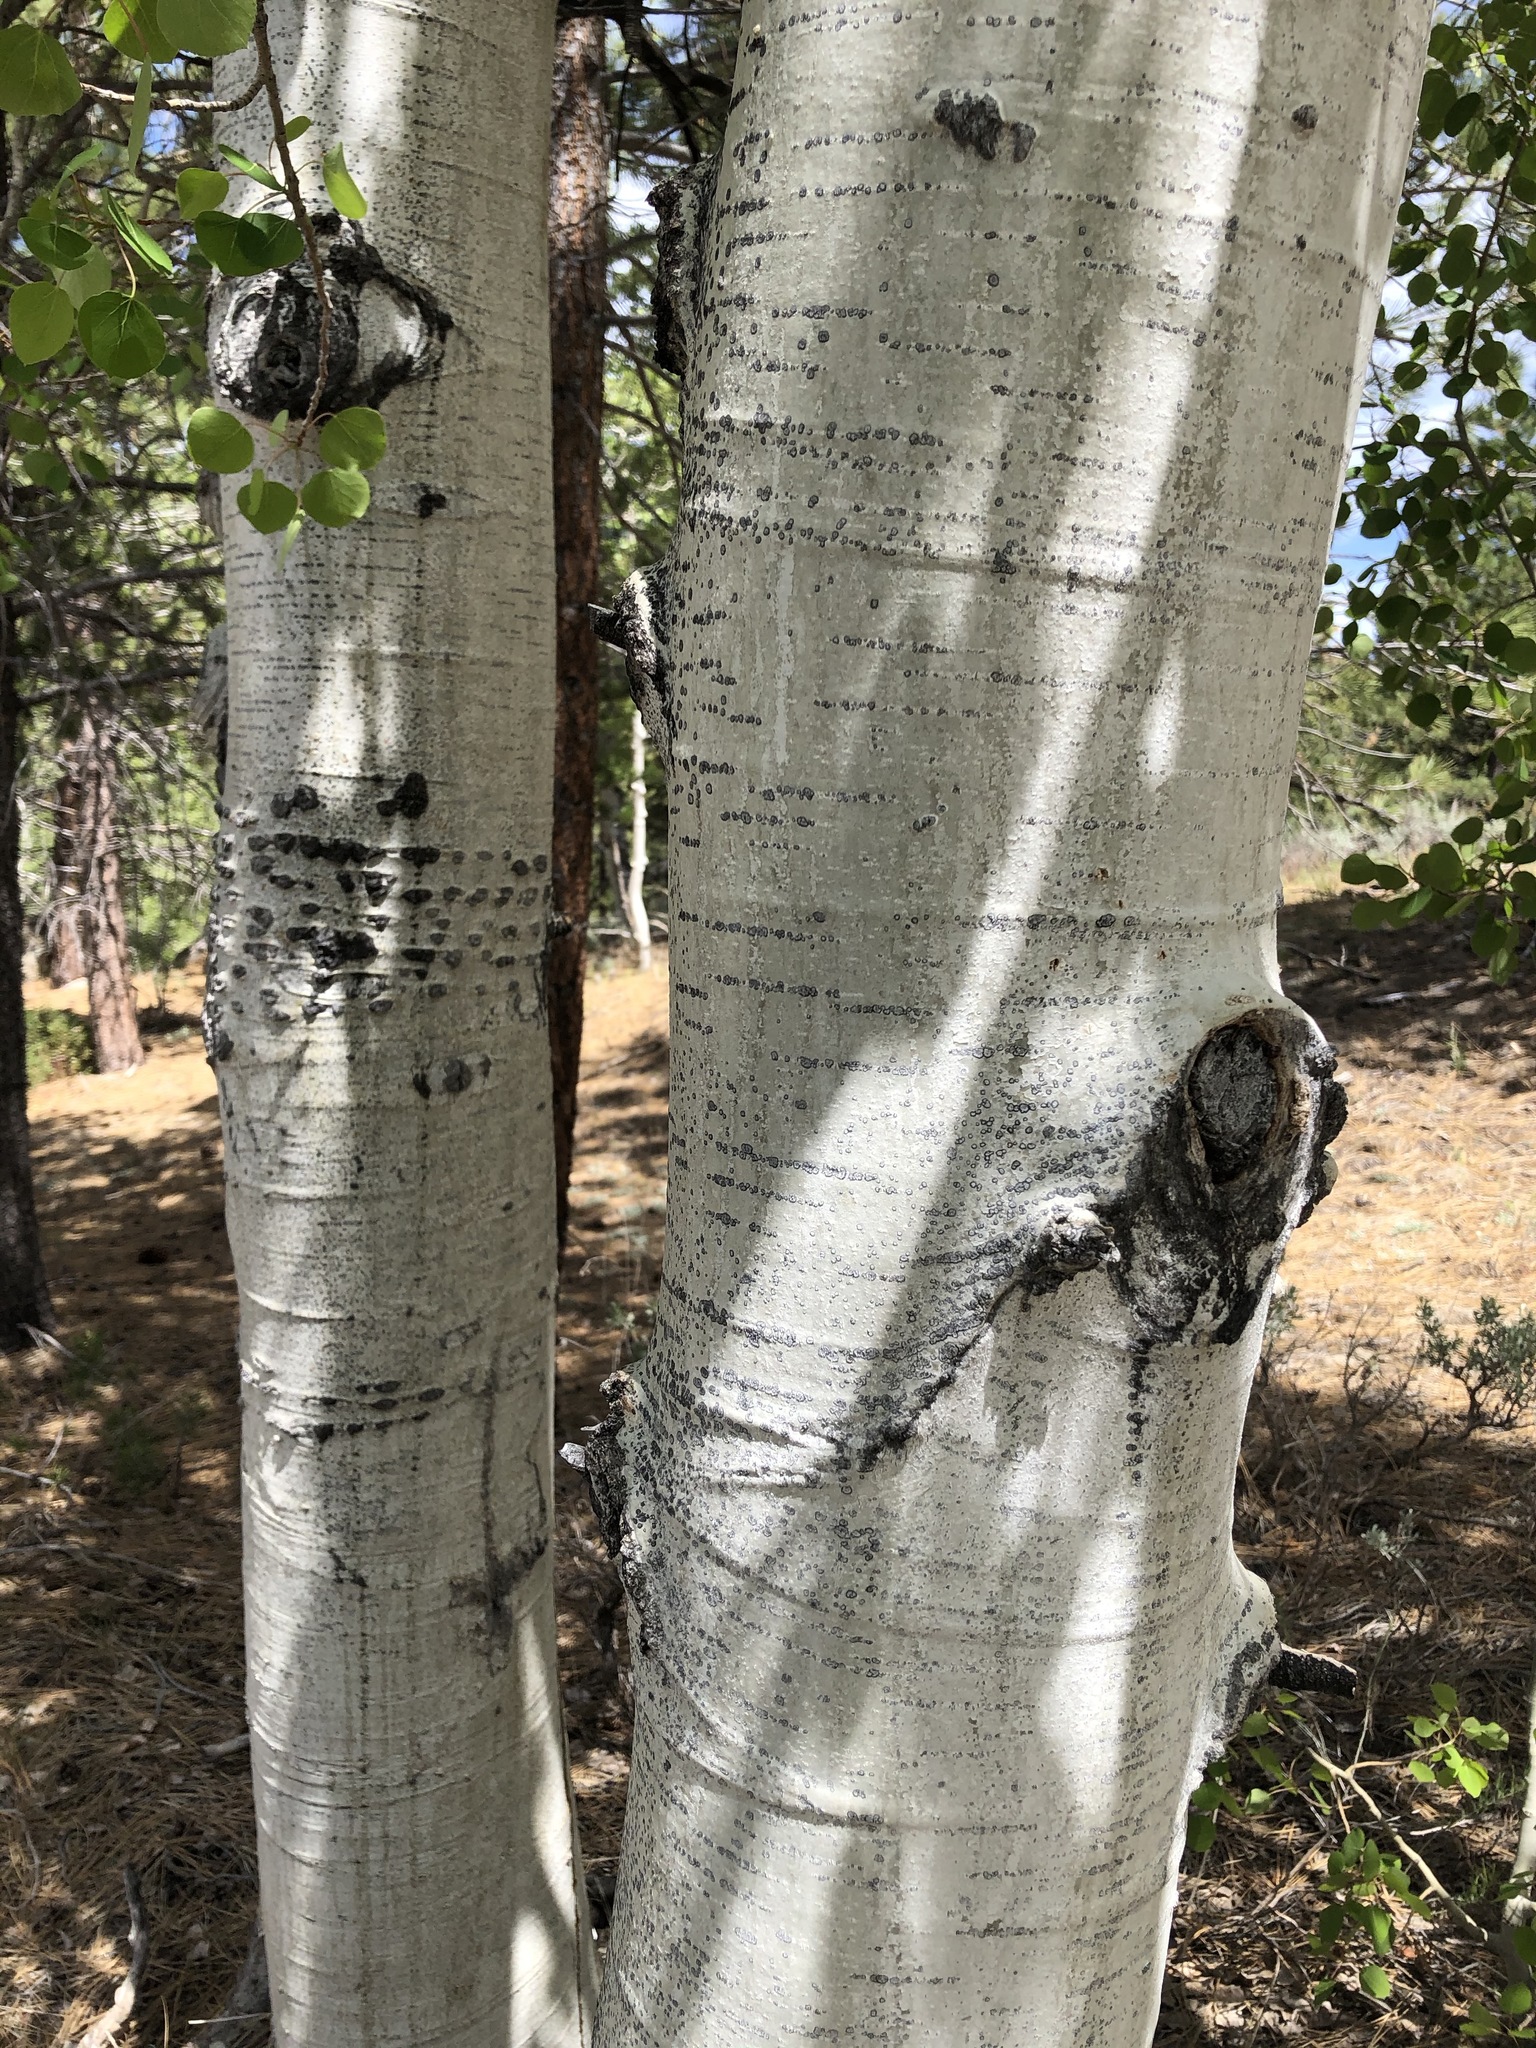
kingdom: Plantae
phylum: Tracheophyta
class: Magnoliopsida
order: Malpighiales
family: Salicaceae
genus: Populus
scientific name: Populus tremuloides
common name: Quaking aspen
